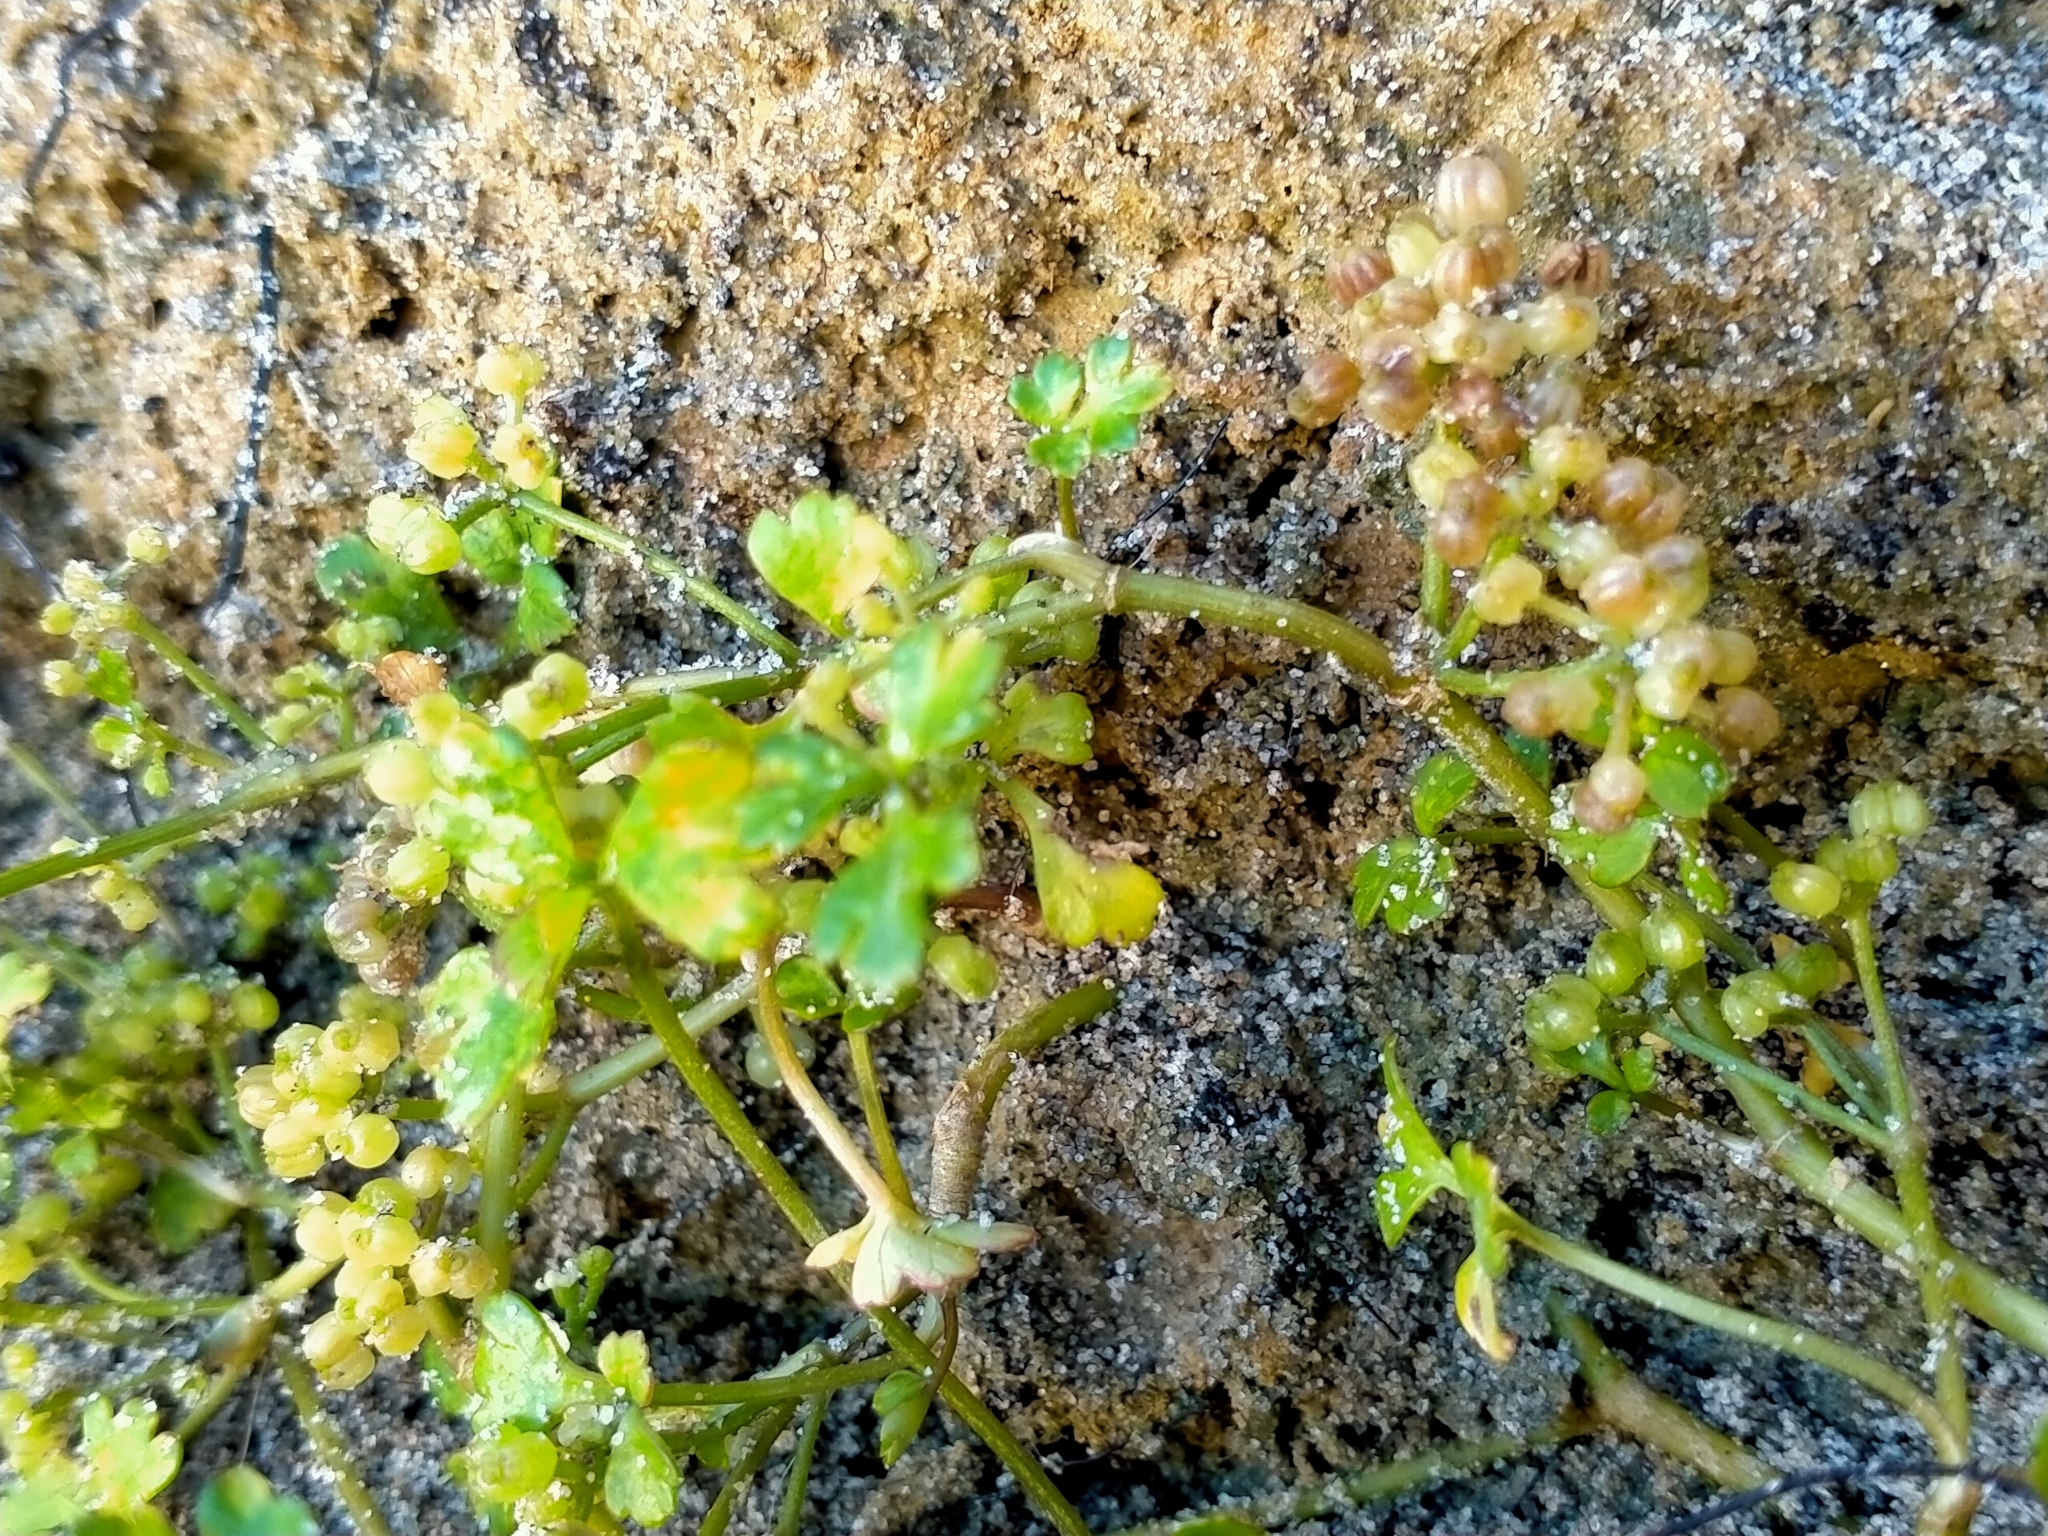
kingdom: Plantae
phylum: Tracheophyta
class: Magnoliopsida
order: Apiales
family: Apiaceae
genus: Apium
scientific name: Apium prostratum
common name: Prostrate marshwort
